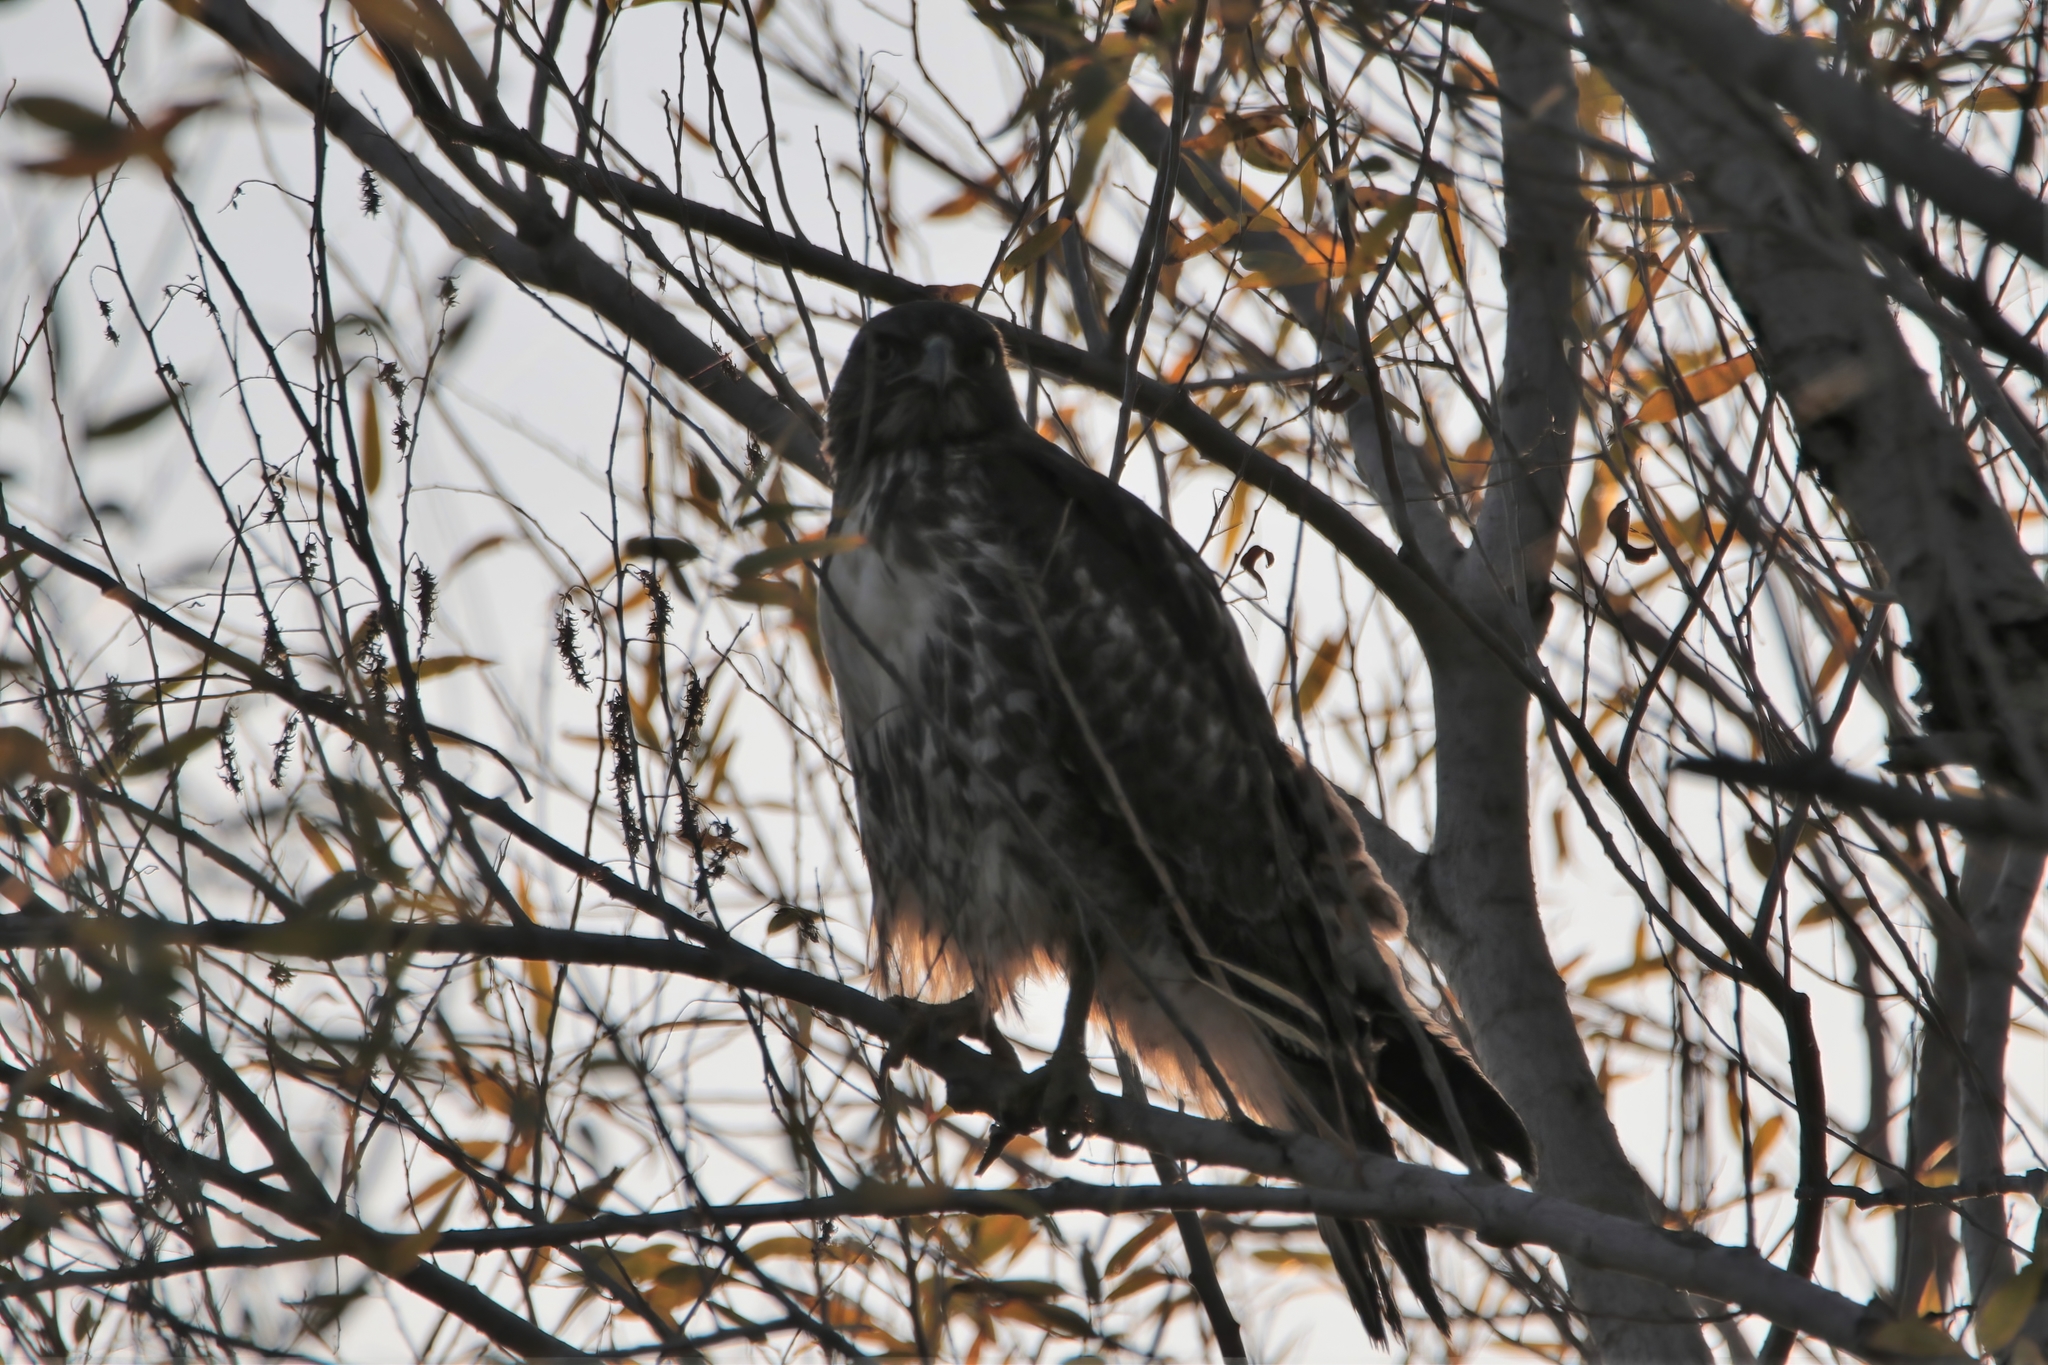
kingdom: Animalia
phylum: Chordata
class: Aves
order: Accipitriformes
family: Accipitridae
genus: Buteo
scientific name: Buteo jamaicensis
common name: Red-tailed hawk
